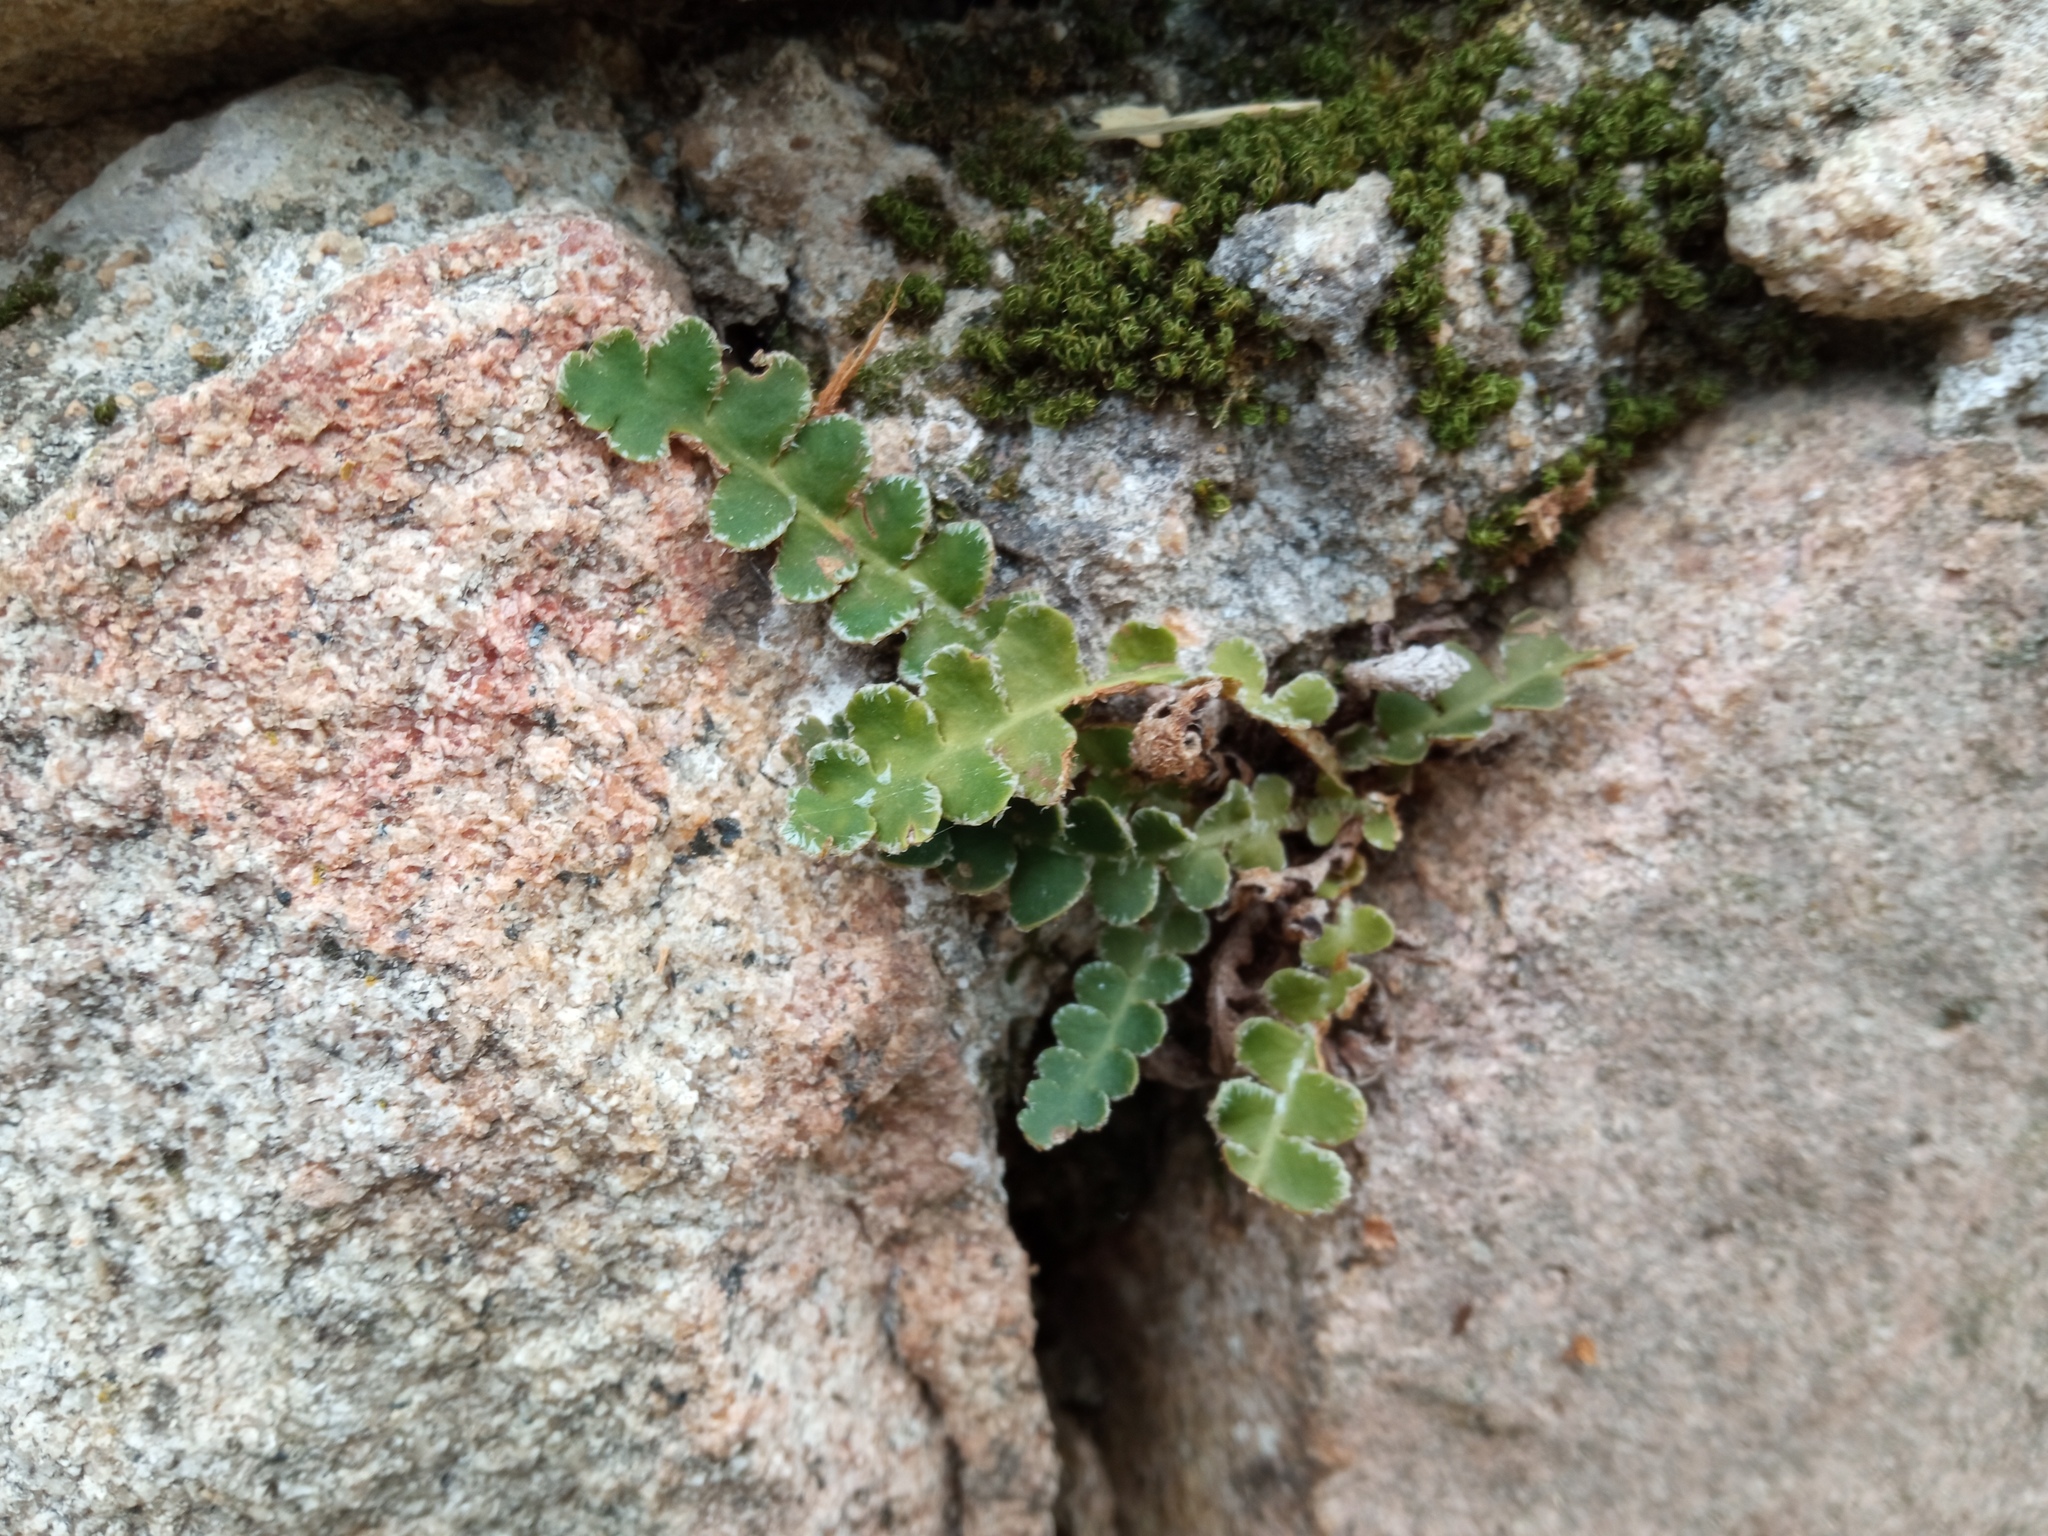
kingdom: Plantae
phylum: Tracheophyta
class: Polypodiopsida
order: Polypodiales
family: Aspleniaceae
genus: Asplenium
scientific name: Asplenium ceterach
